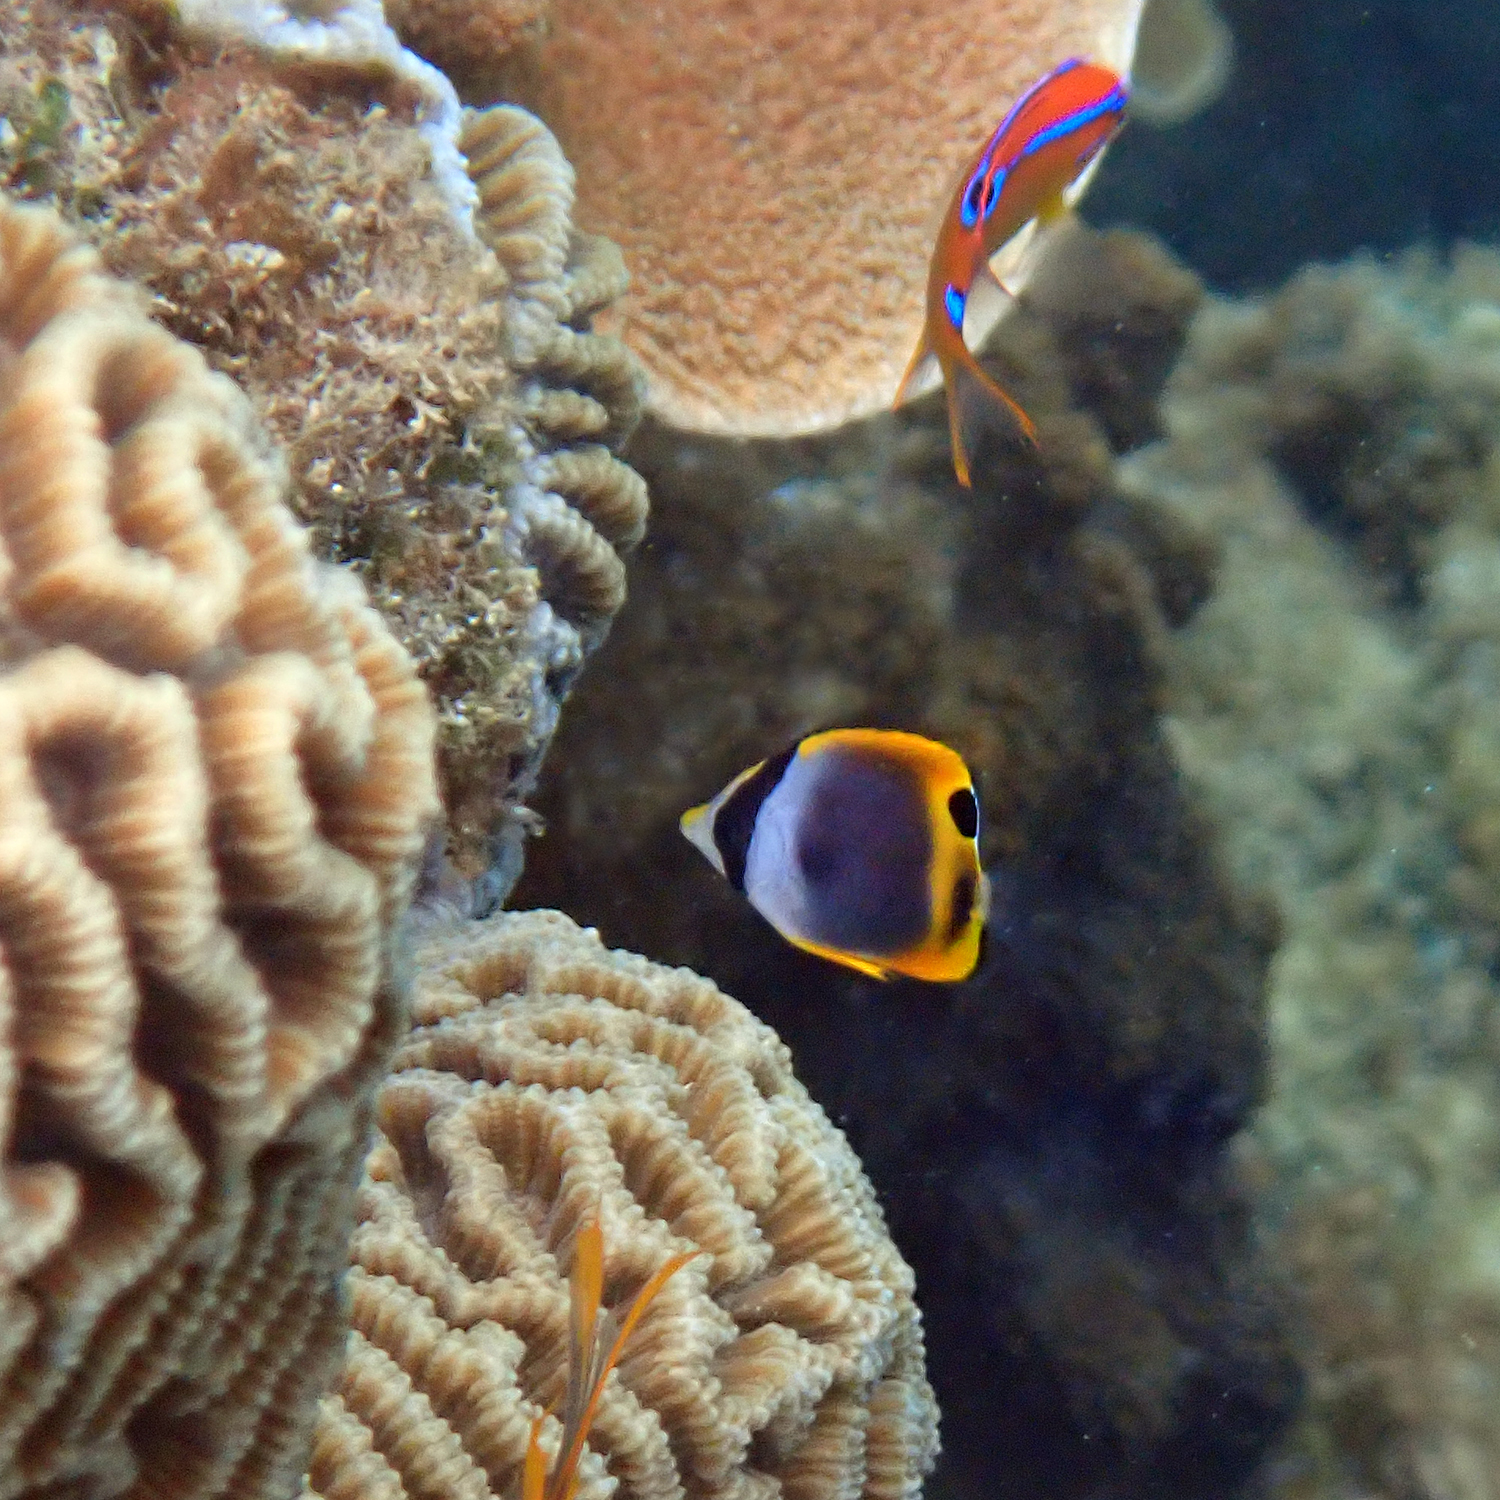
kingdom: Animalia
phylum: Chordata
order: Perciformes
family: Chaetodontidae
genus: Chaetodon
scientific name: Chaetodon flavirostris
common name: Black butterflyfish
